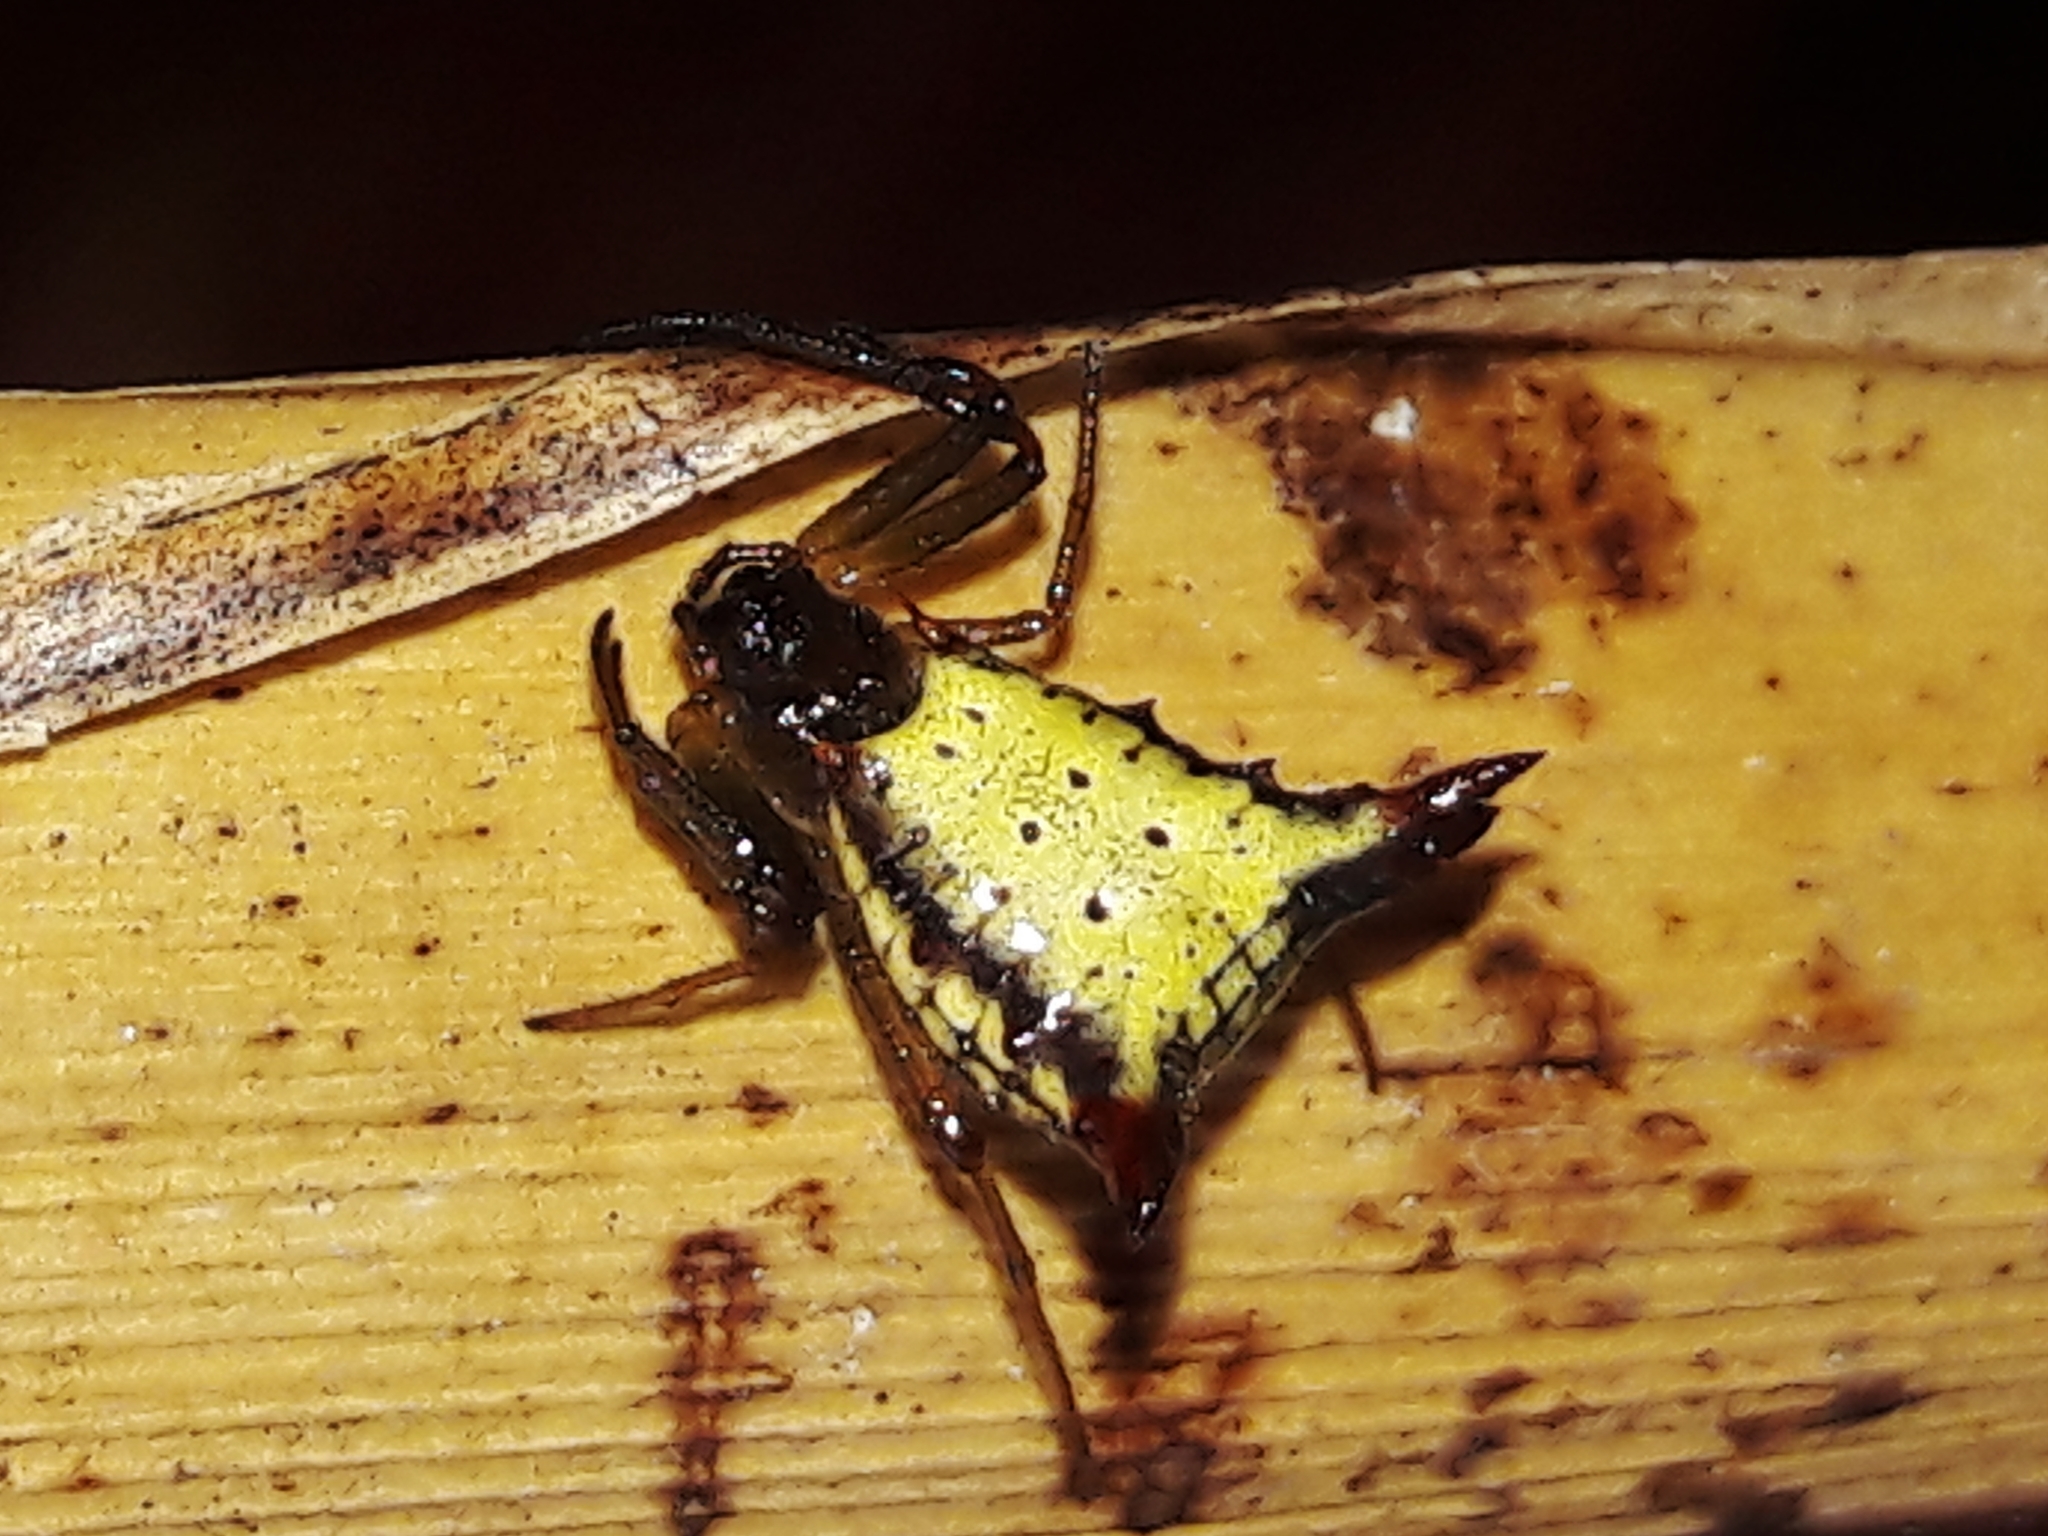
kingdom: Animalia
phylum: Arthropoda
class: Arachnida
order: Araneae
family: Araneidae
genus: Micrathena
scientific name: Micrathena plana
